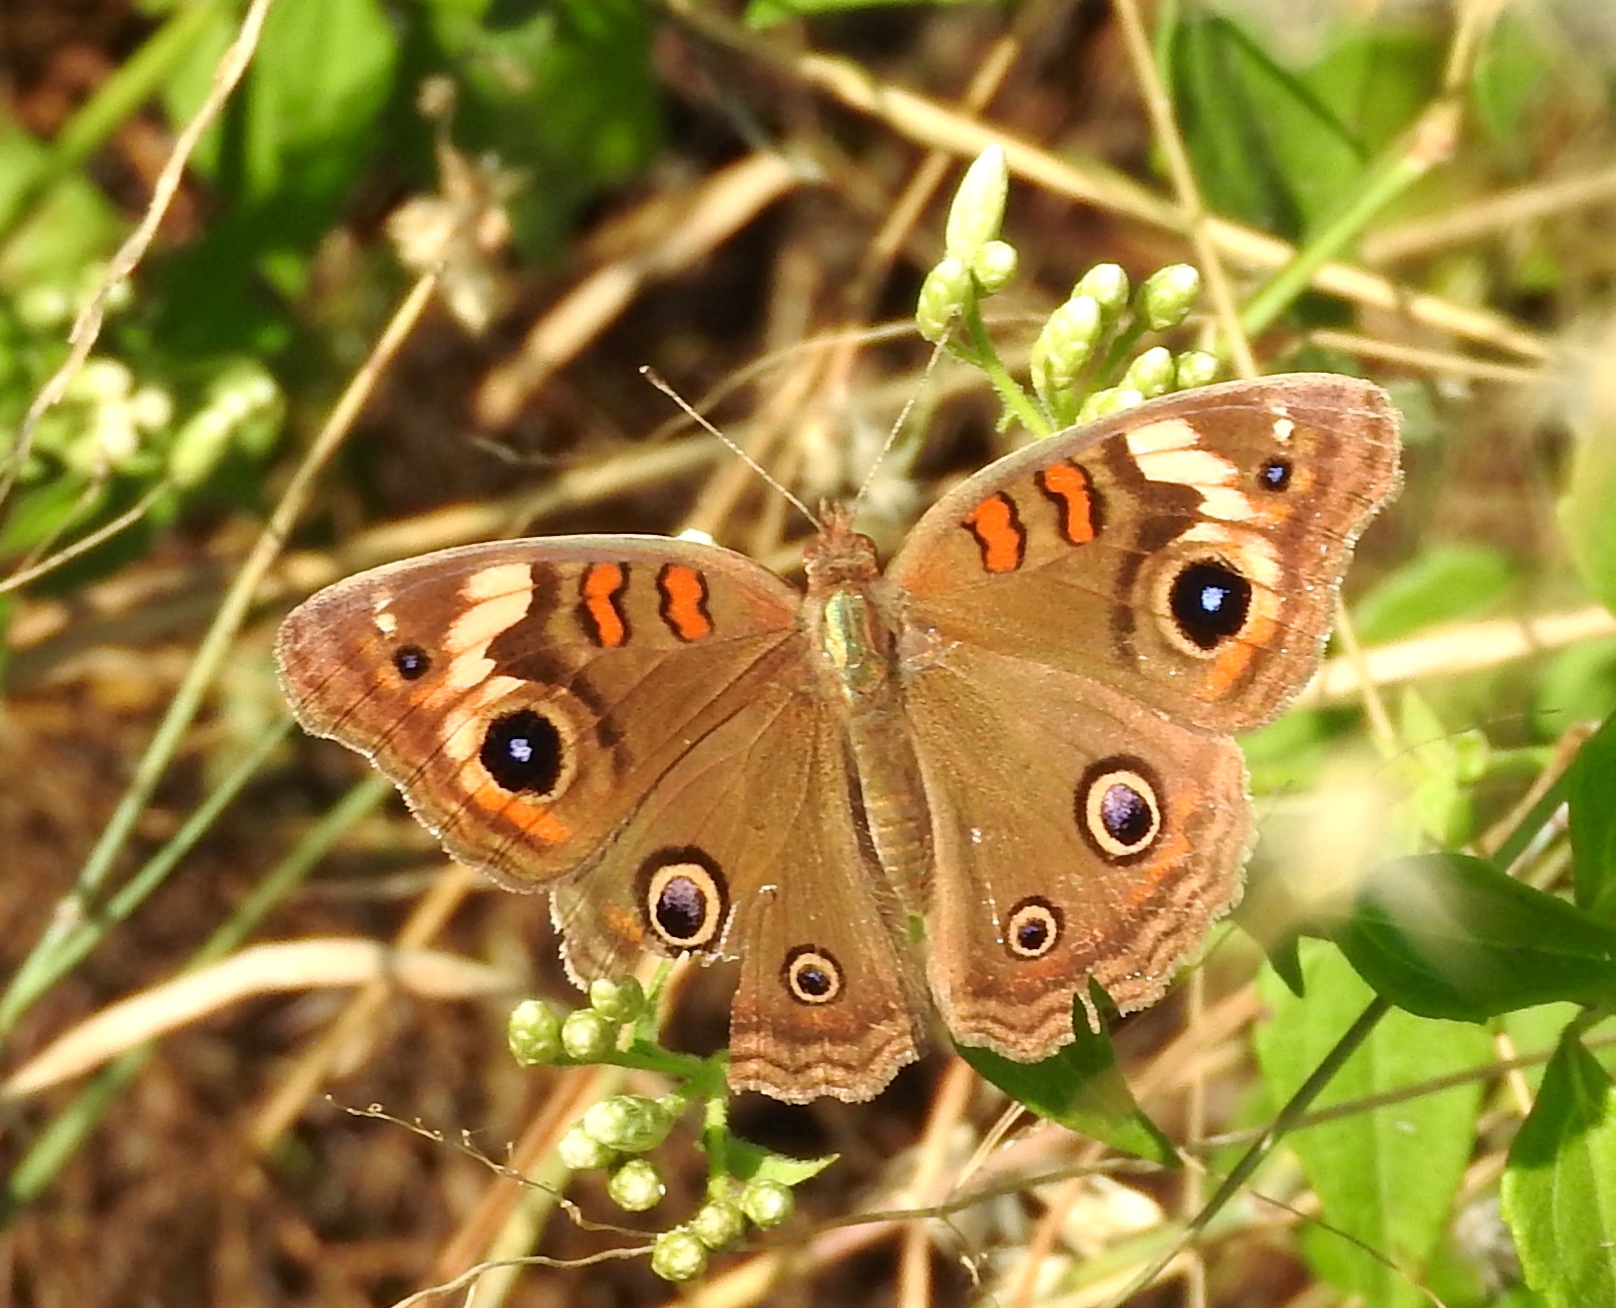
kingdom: Animalia
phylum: Arthropoda
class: Insecta
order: Lepidoptera
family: Nymphalidae
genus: Junonia
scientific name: Junonia nigrosuffusa
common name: Dark buckeye
